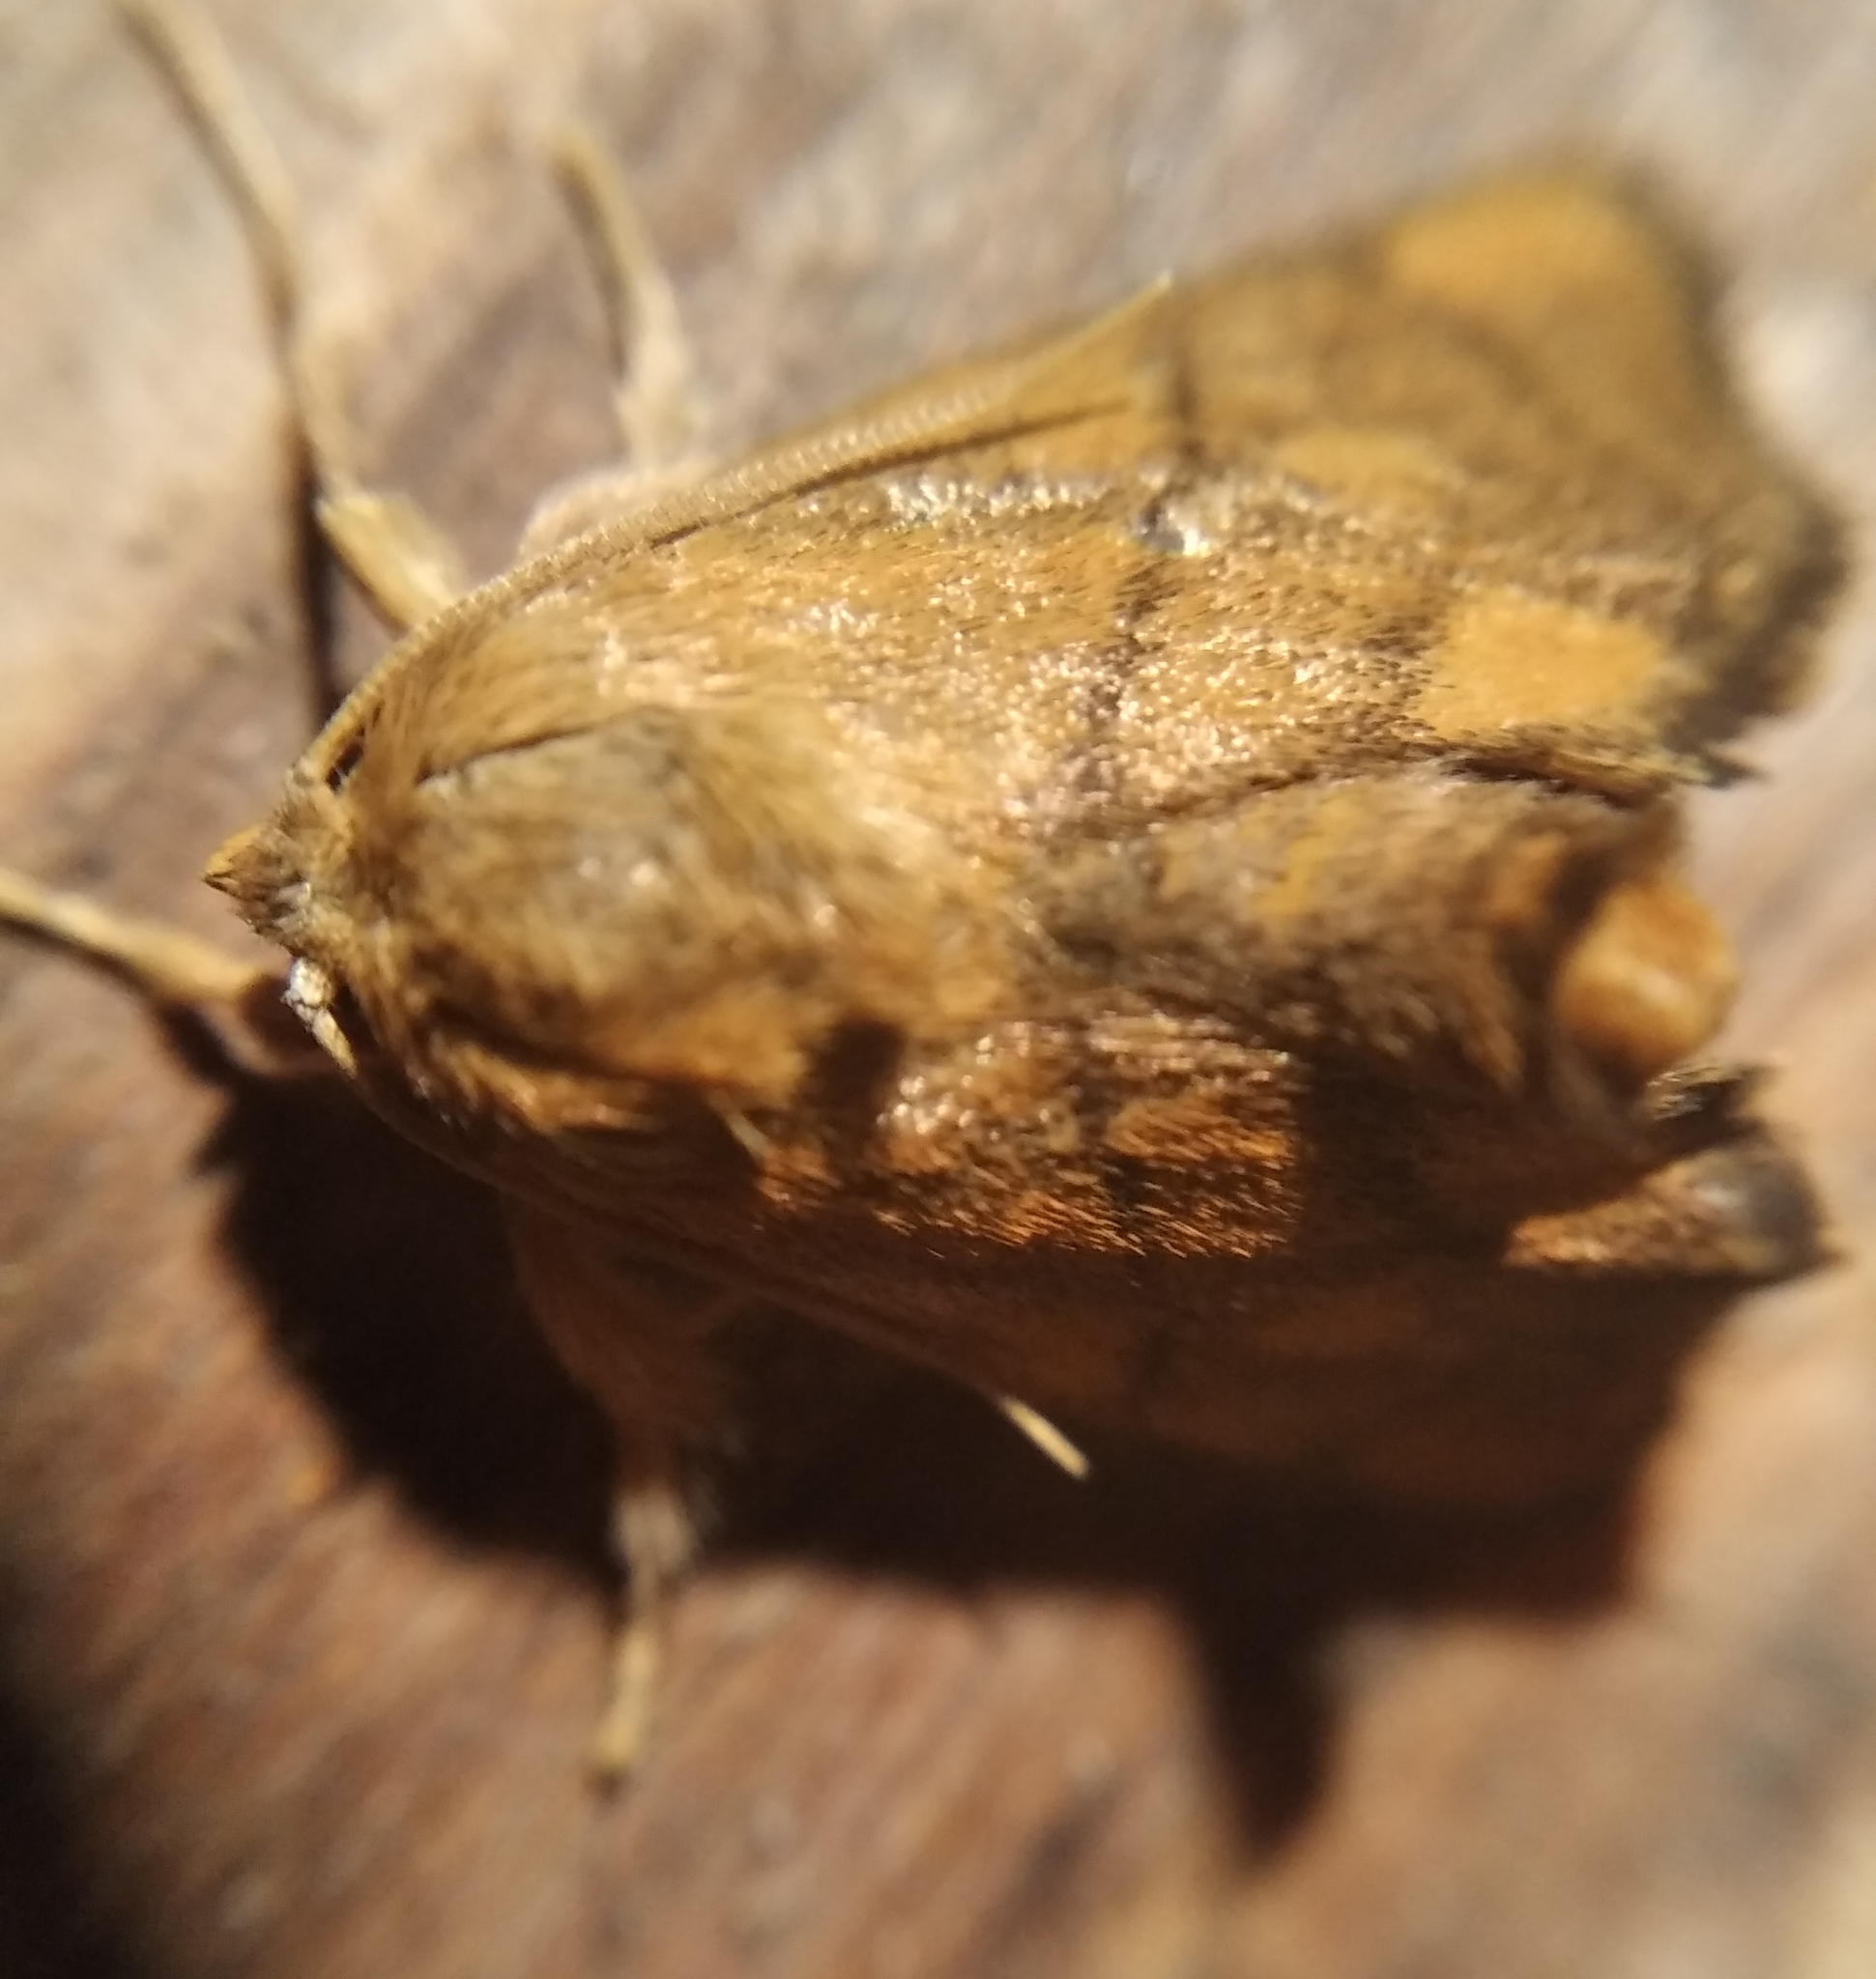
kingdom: Animalia
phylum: Arthropoda
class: Insecta
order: Lepidoptera
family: Limacodidae
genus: Apoda
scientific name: Apoda limacodes
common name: Festoon
